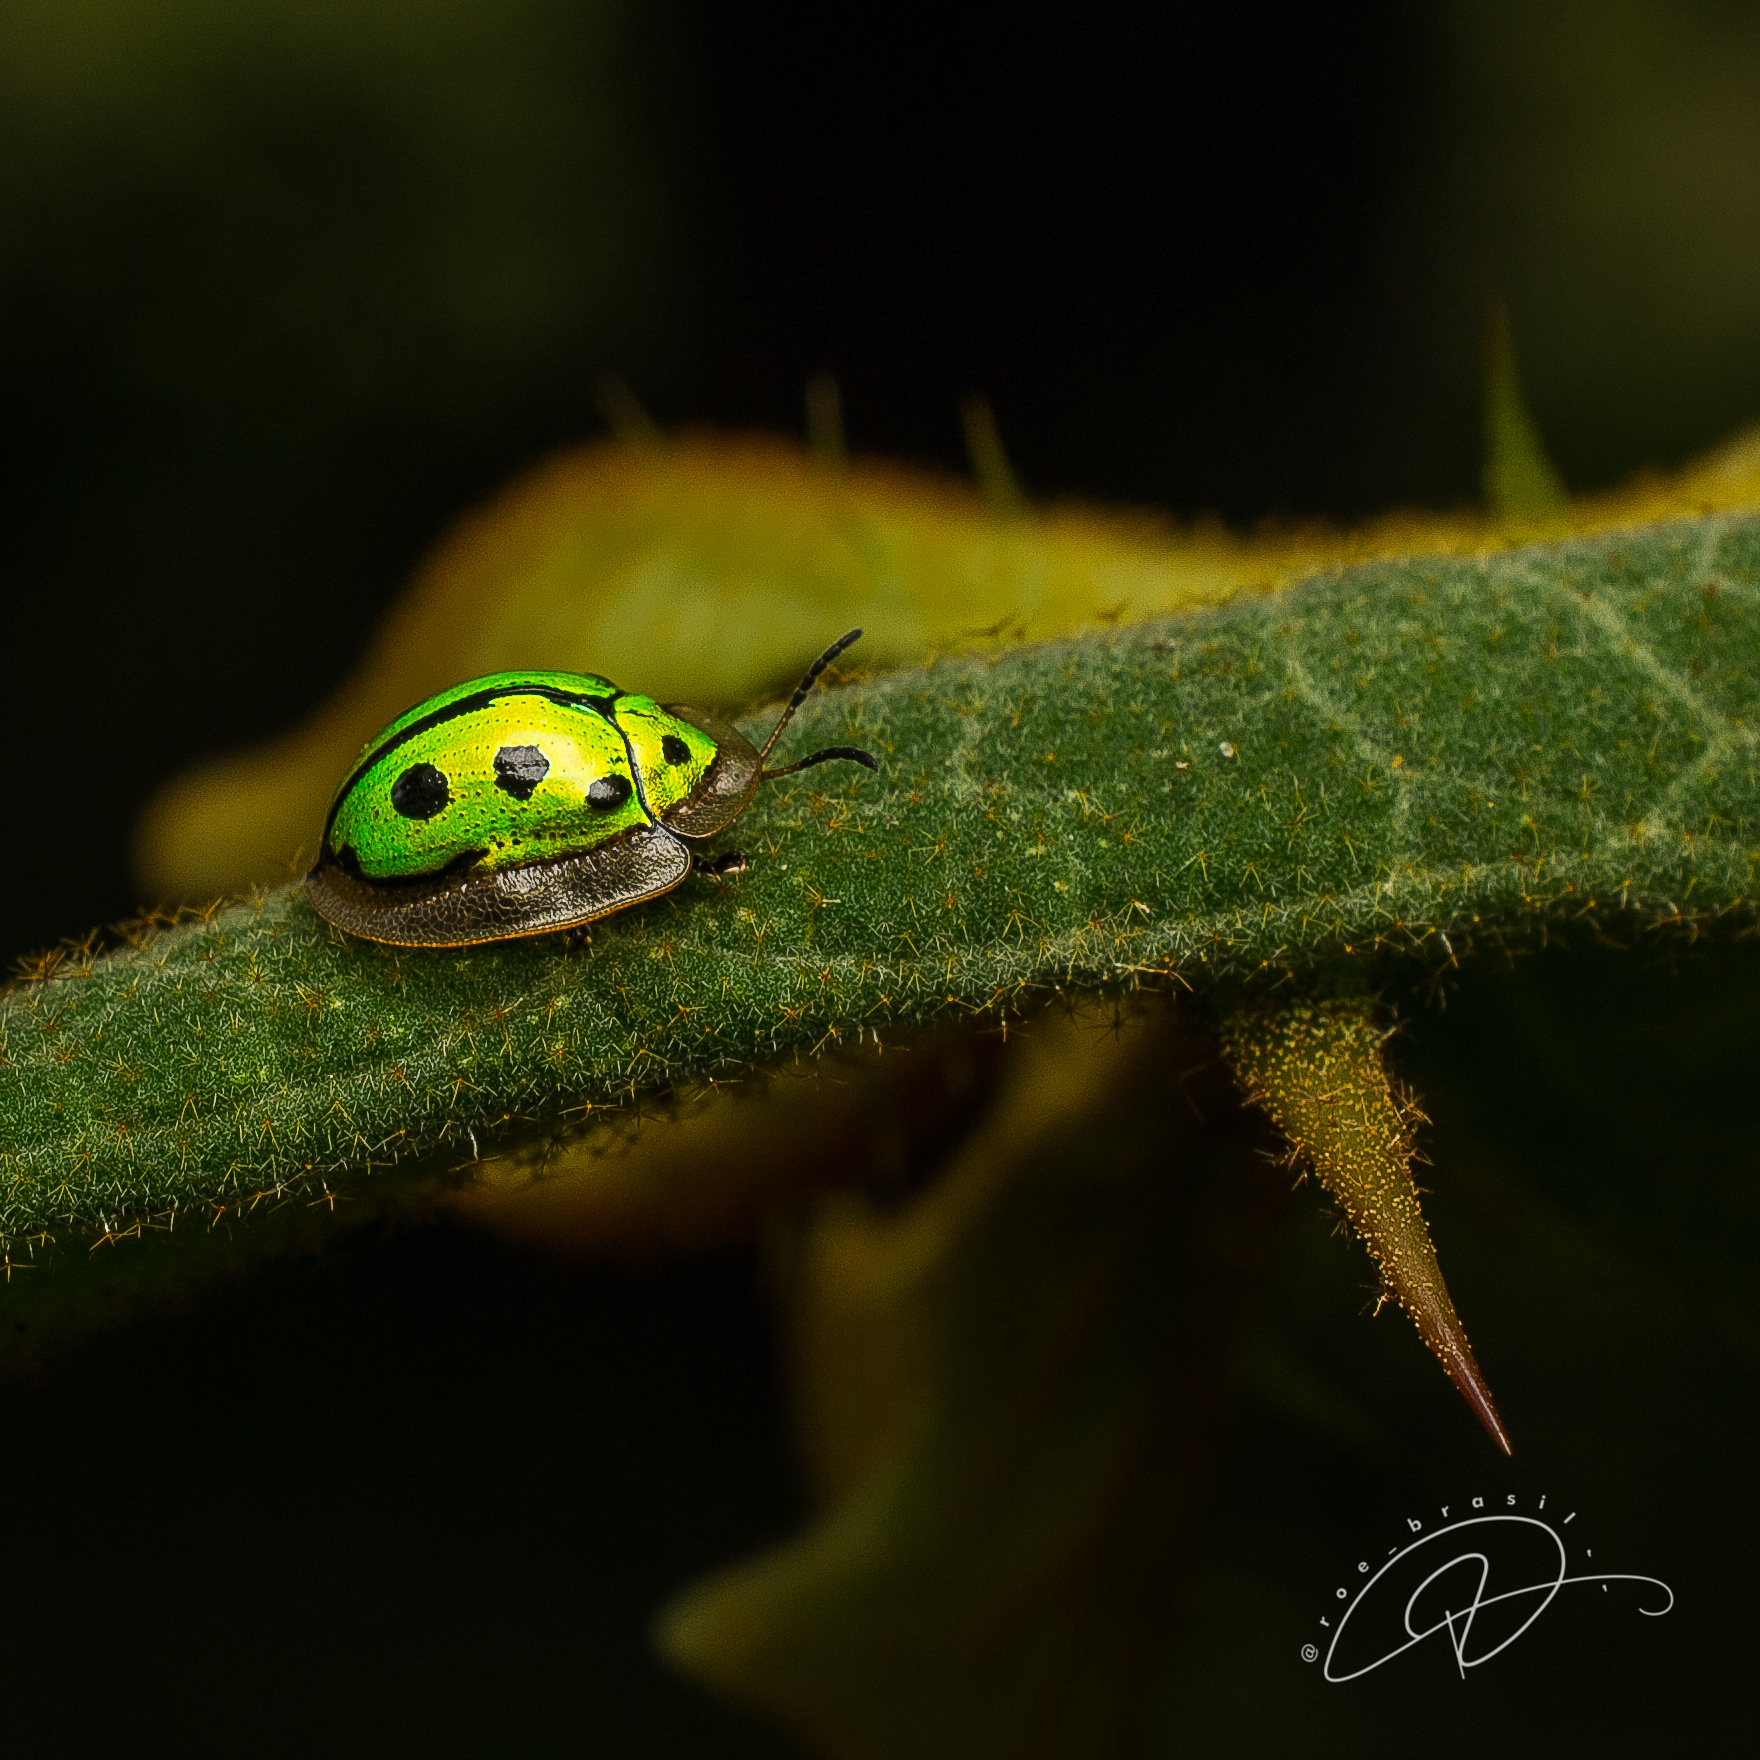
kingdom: Animalia
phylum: Arthropoda
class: Insecta
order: Coleoptera
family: Chrysomelidae
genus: Coptocycla
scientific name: Coptocycla adamantina
